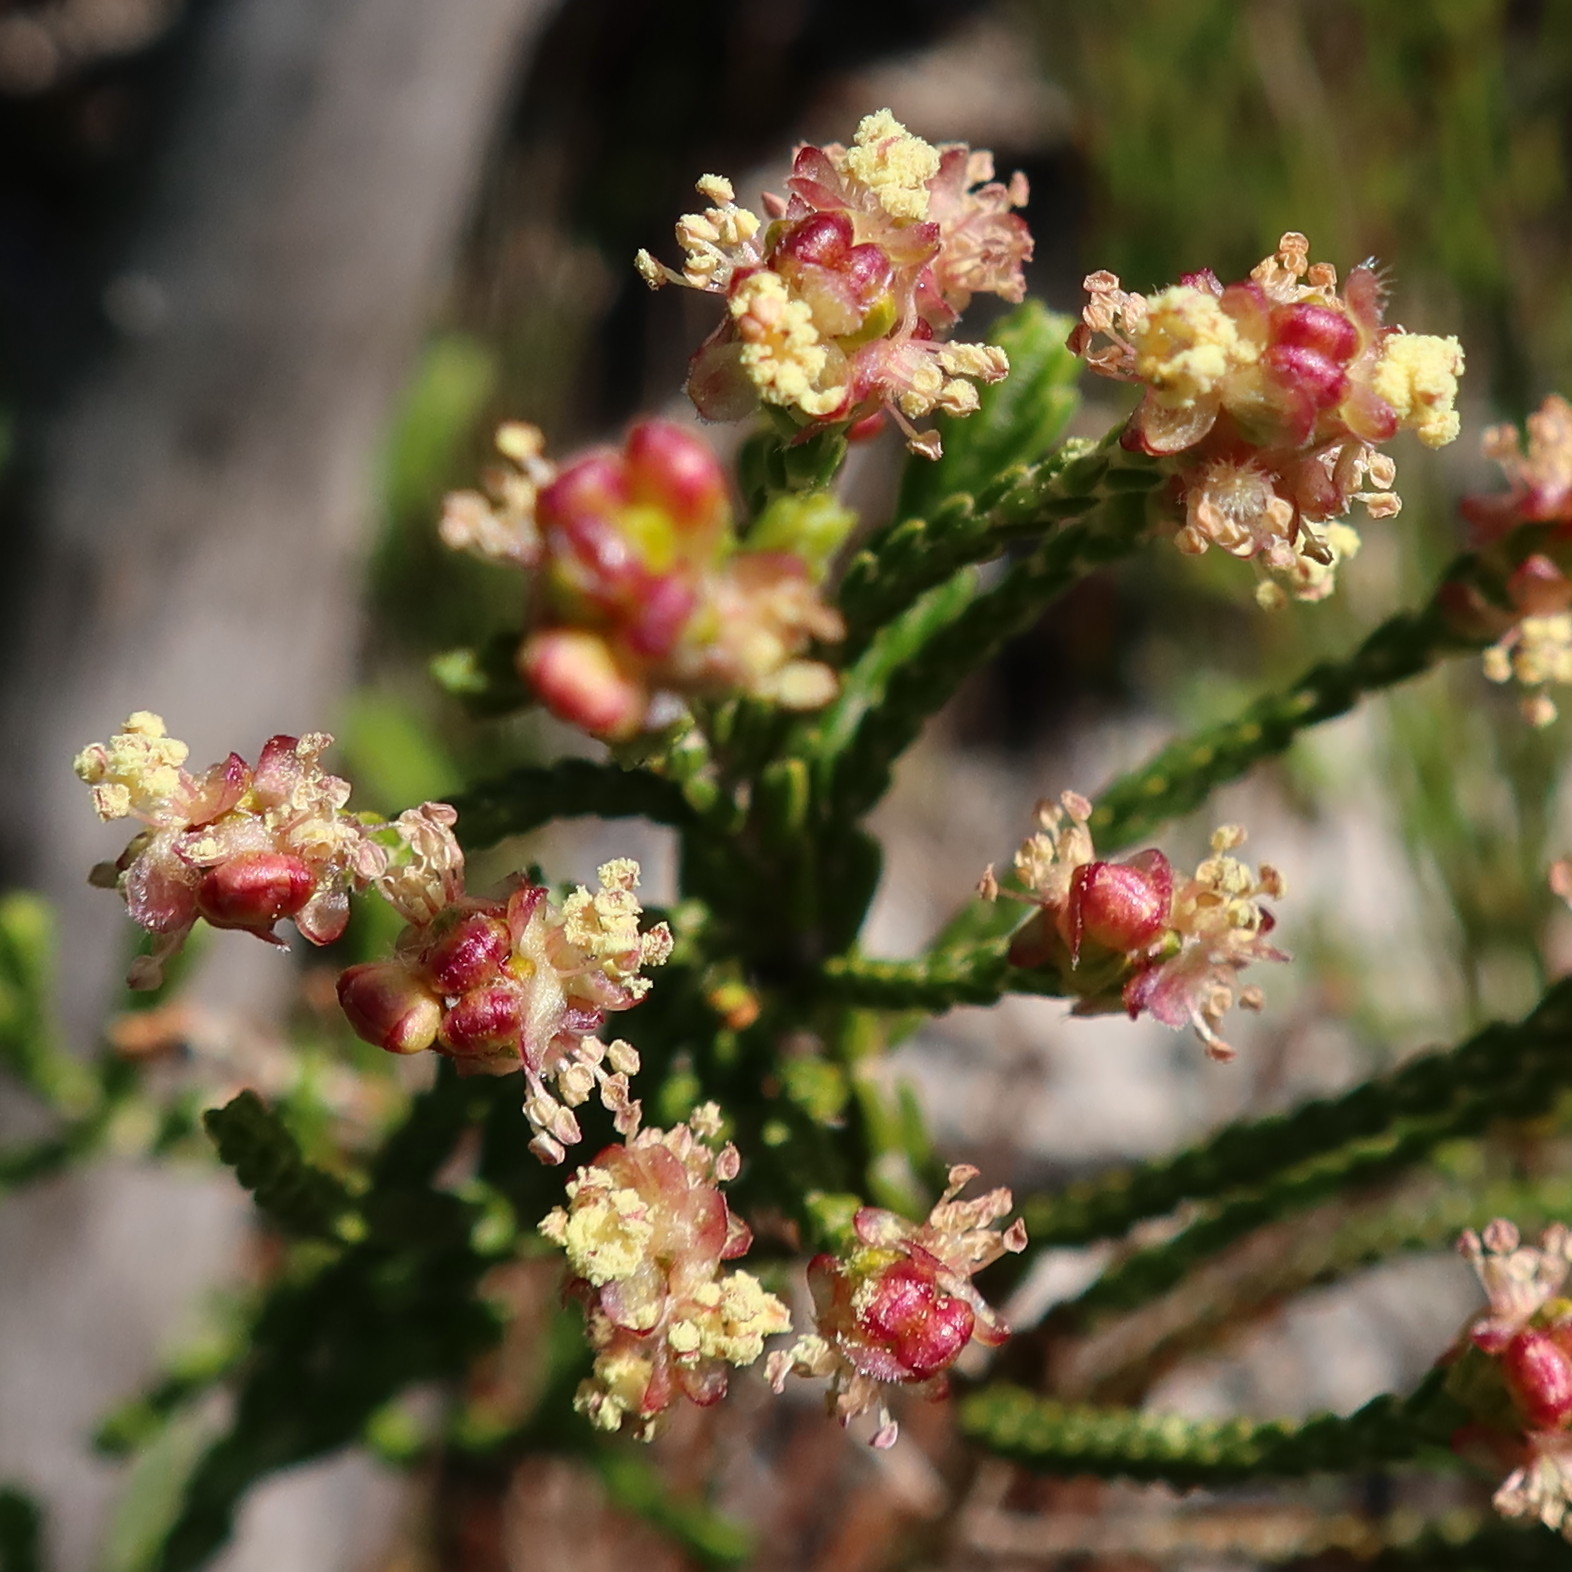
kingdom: Plantae
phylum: Tracheophyta
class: Magnoliopsida
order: Malvales
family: Thymelaeaceae
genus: Passerina
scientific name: Passerina ericoides
